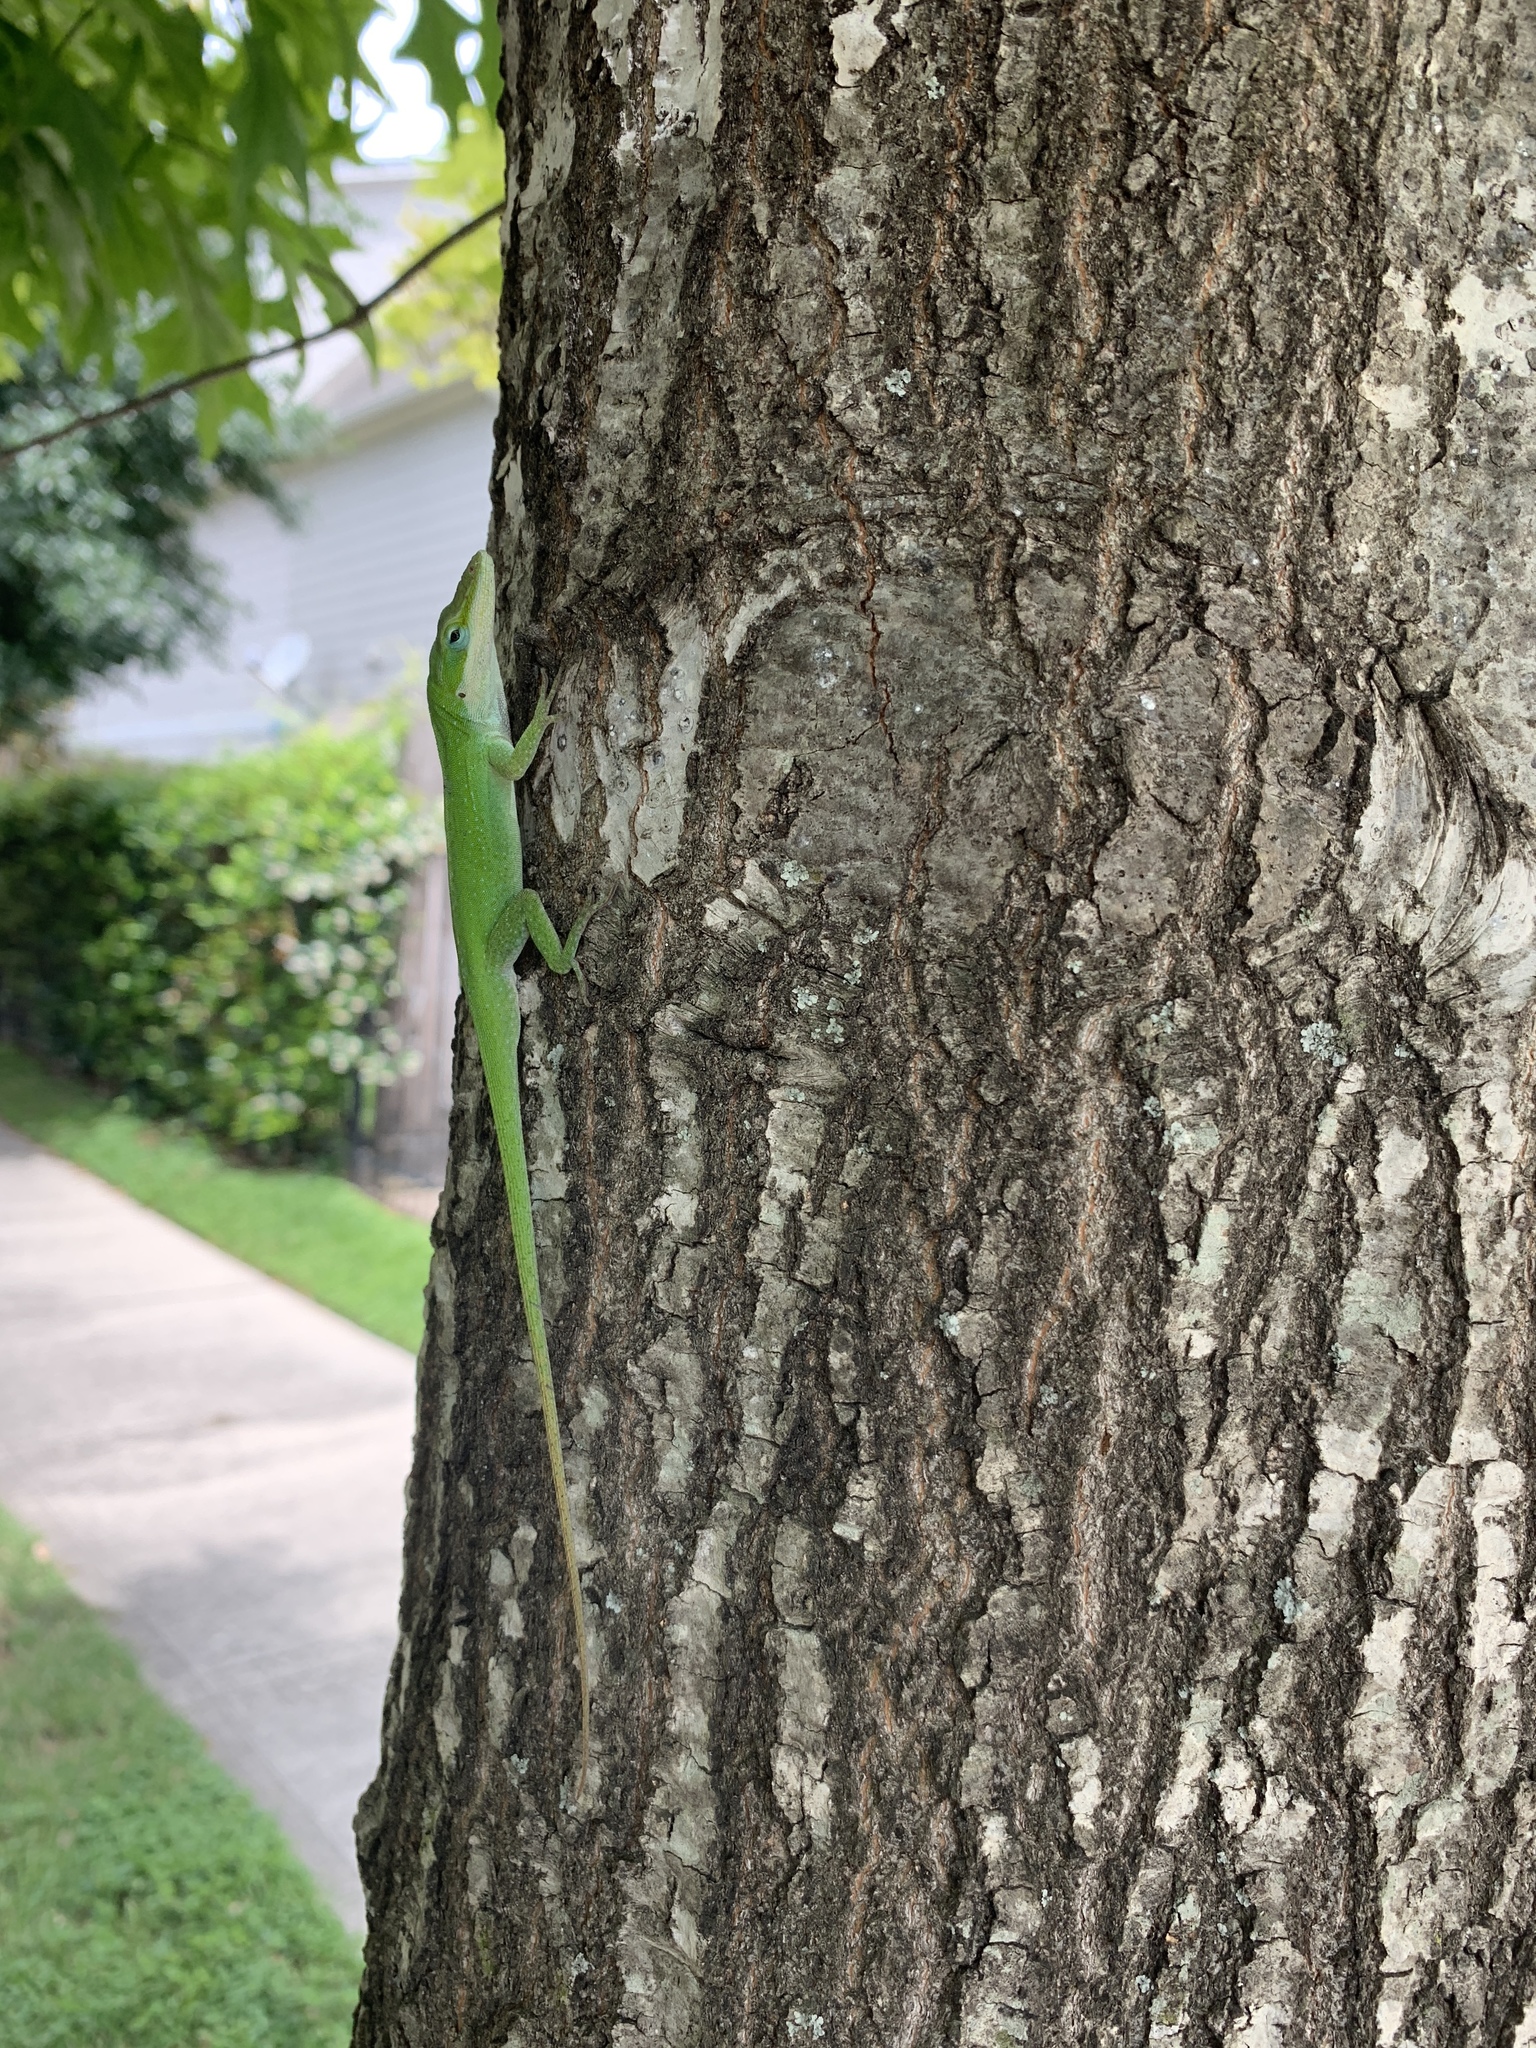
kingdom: Animalia
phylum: Chordata
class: Squamata
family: Dactyloidae
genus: Anolis
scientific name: Anolis carolinensis
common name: Green anole
